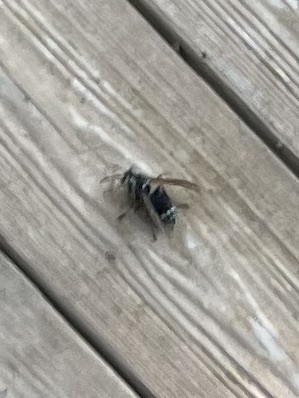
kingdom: Animalia
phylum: Arthropoda
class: Insecta
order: Hymenoptera
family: Vespidae
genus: Dolichovespula
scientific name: Dolichovespula maculata
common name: Bald-faced hornet
